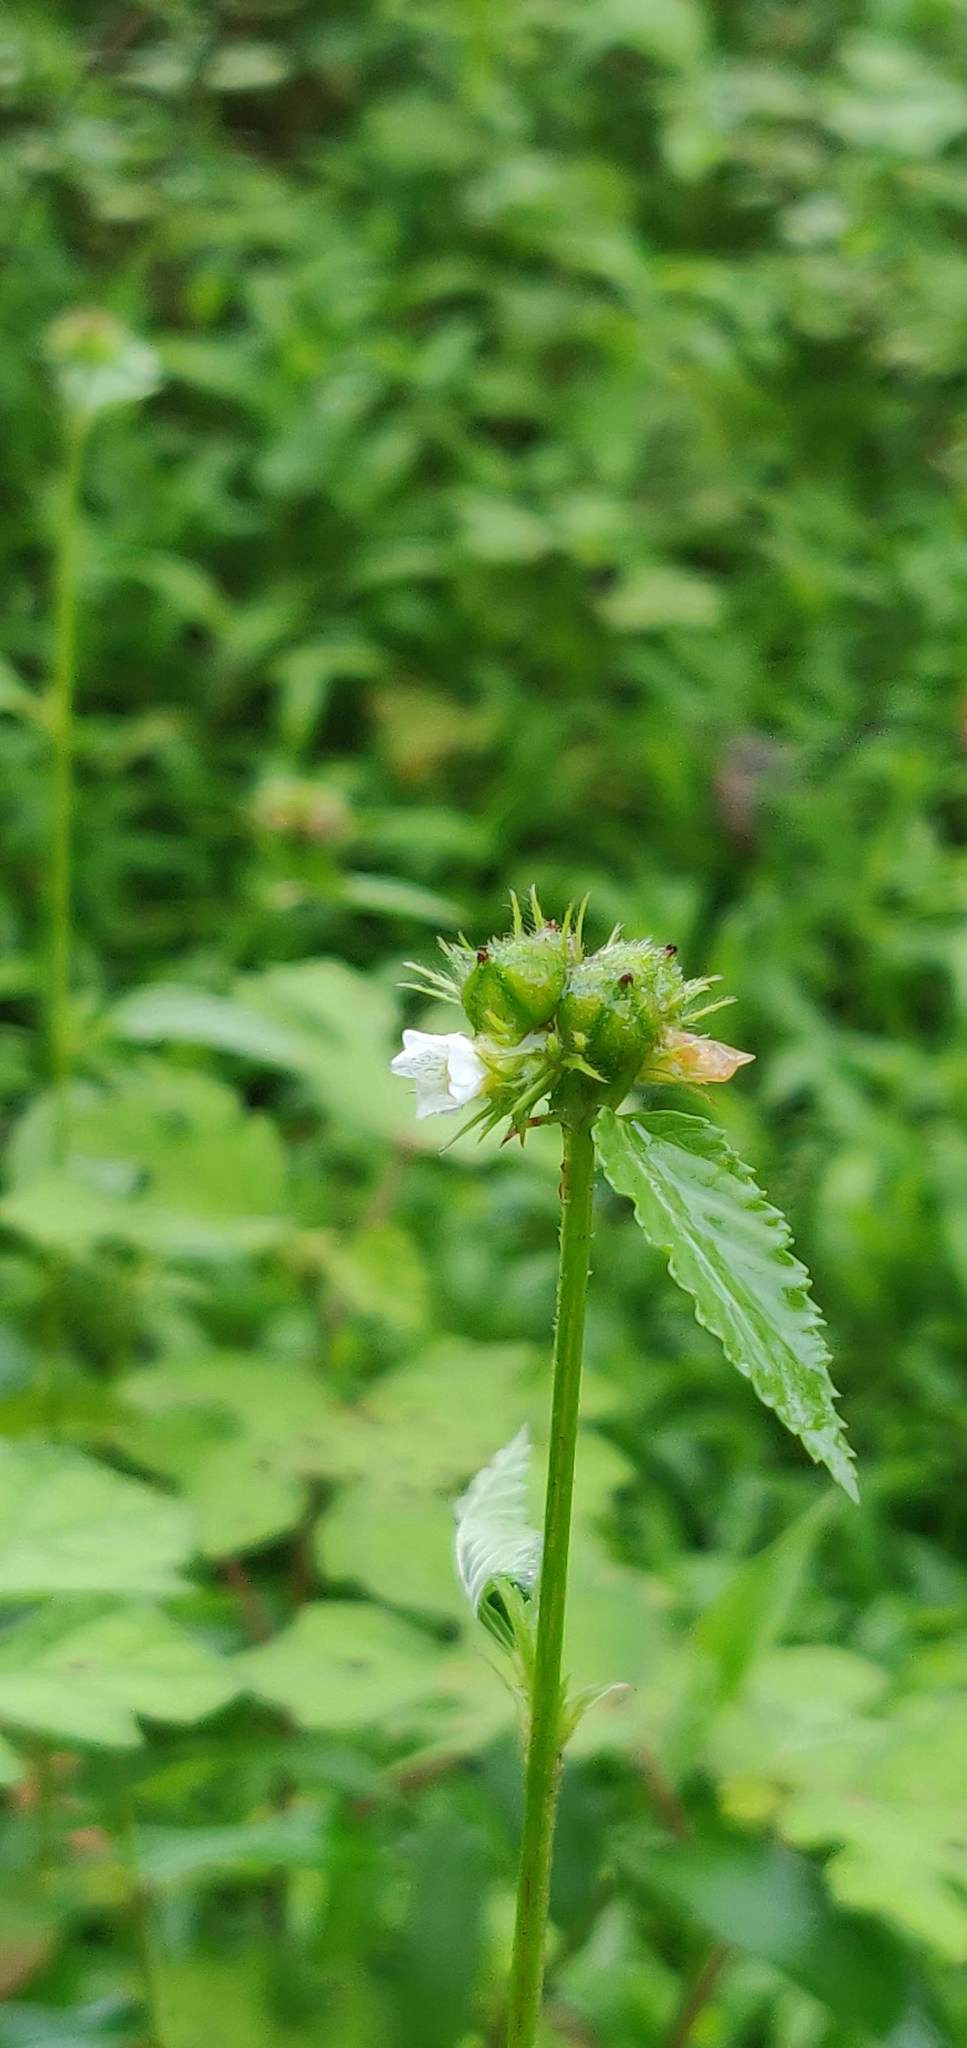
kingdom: Plantae
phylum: Tracheophyta
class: Magnoliopsida
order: Malvales
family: Malvaceae
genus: Melochia
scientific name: Melochia corchorifolia
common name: Chocolateweed
